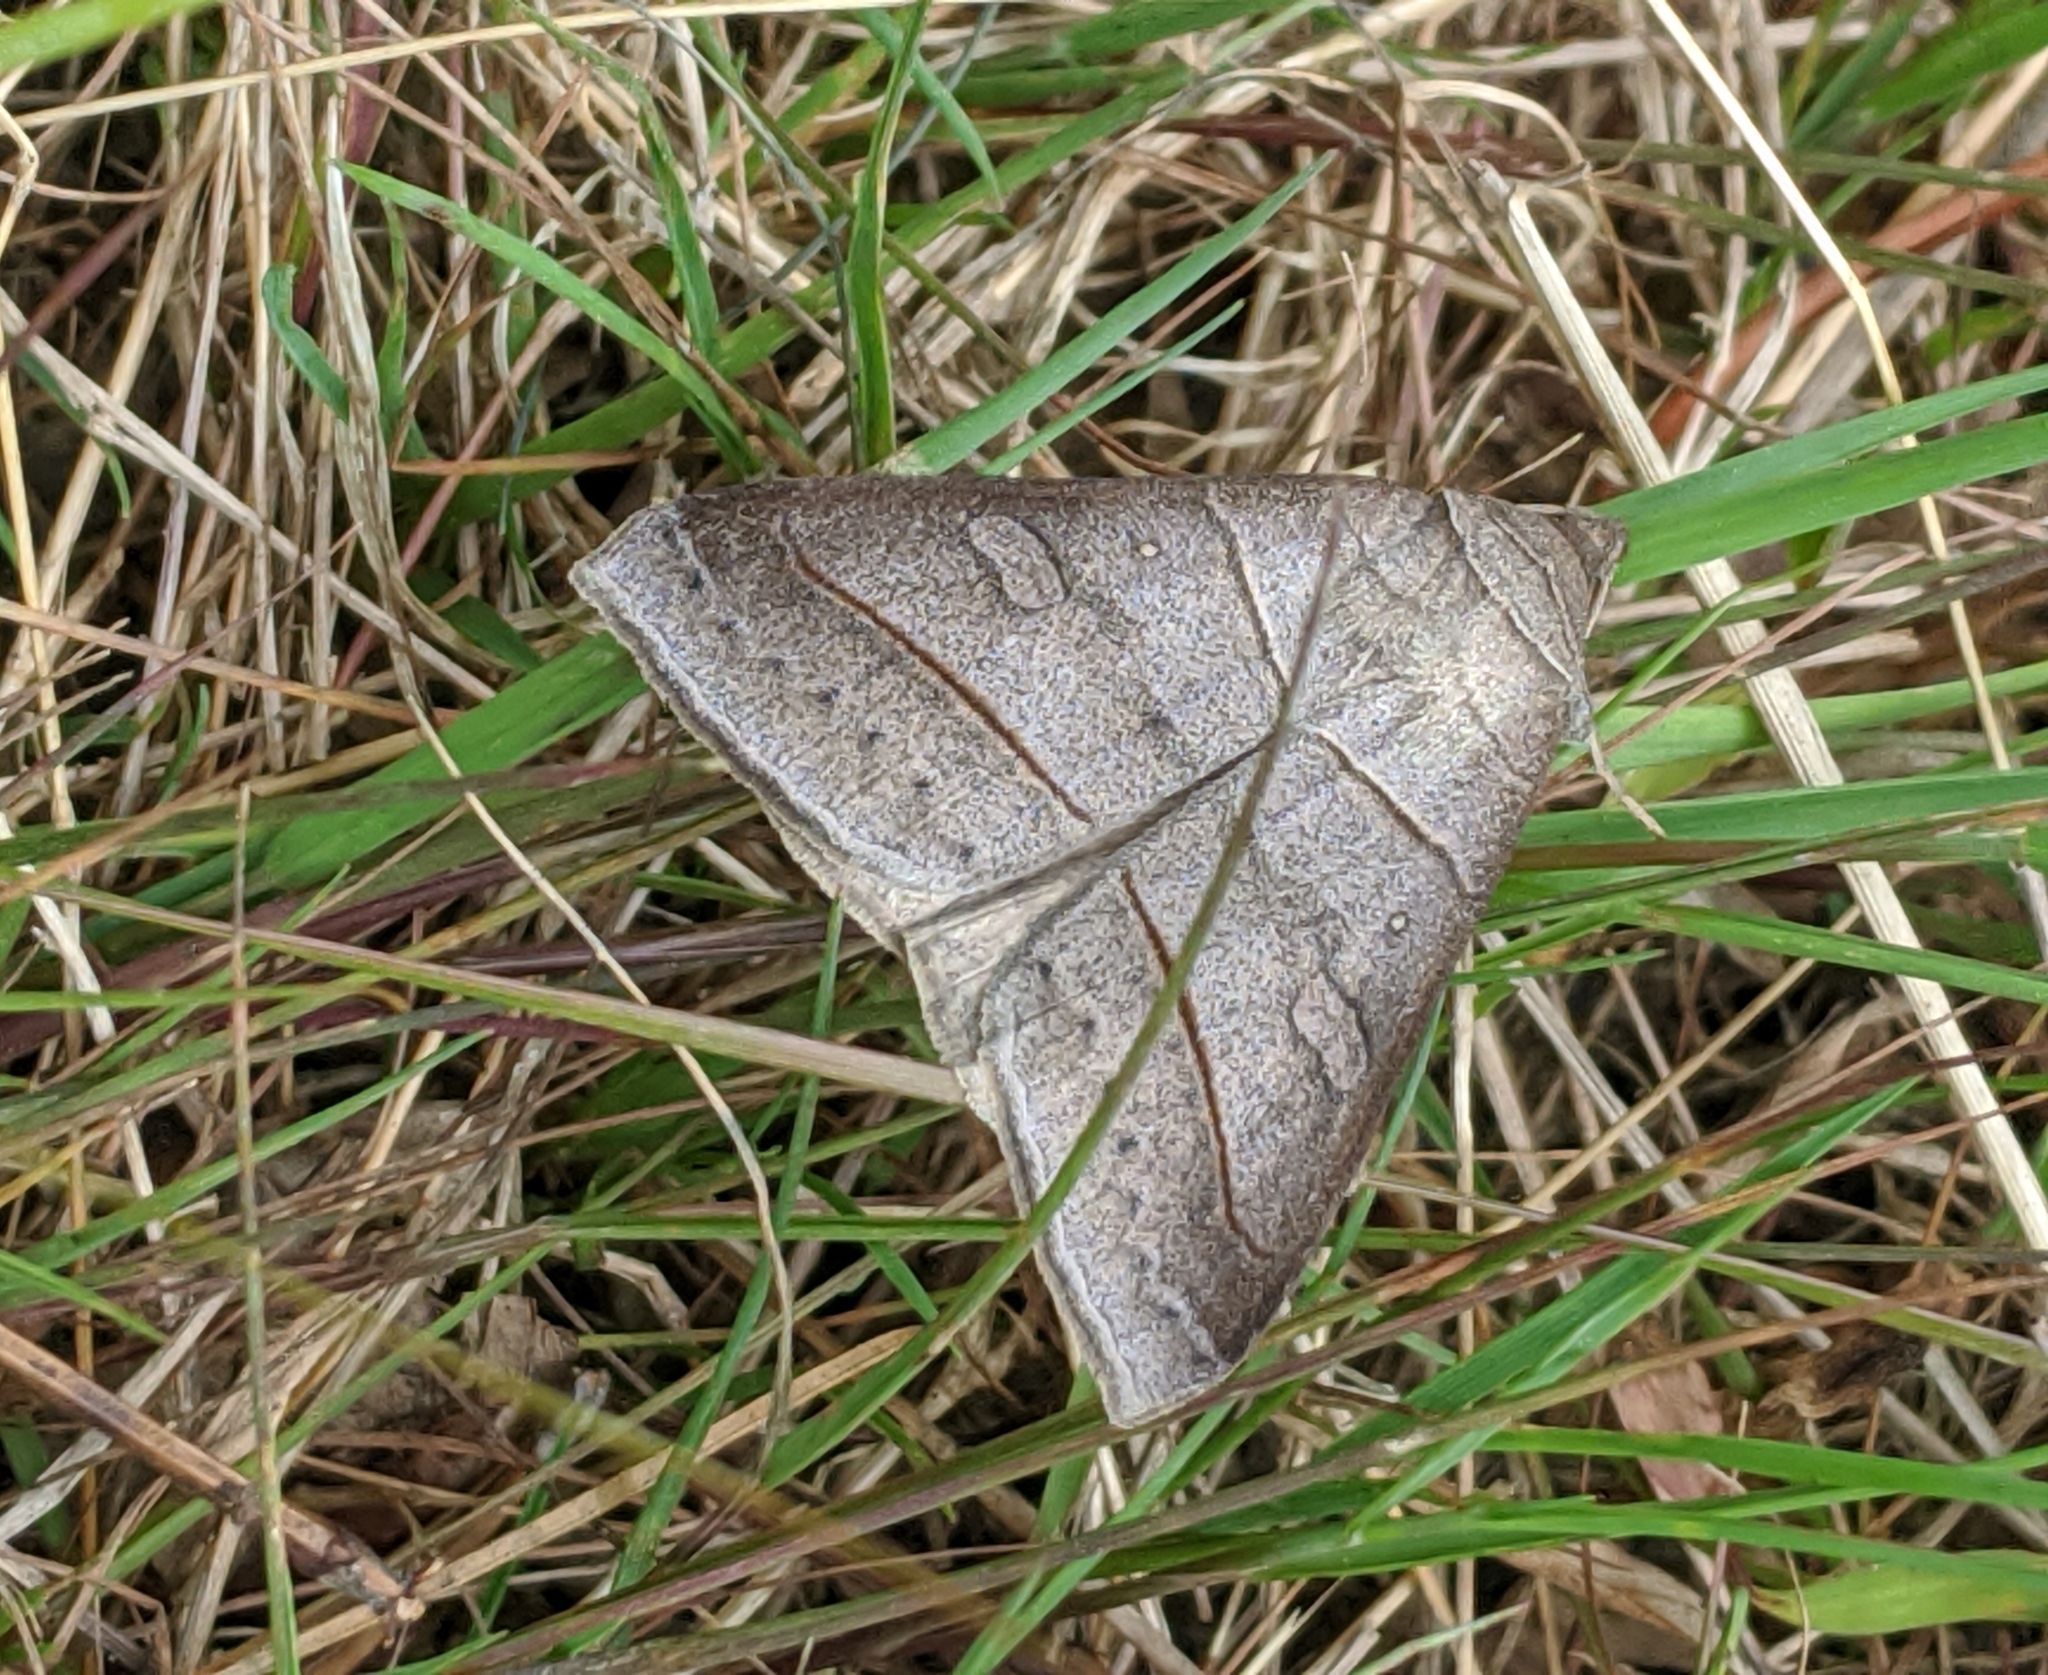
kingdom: Animalia
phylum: Arthropoda
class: Insecta
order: Lepidoptera
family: Erebidae
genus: Mocis
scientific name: Mocis texana
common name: Texas mocis moth
